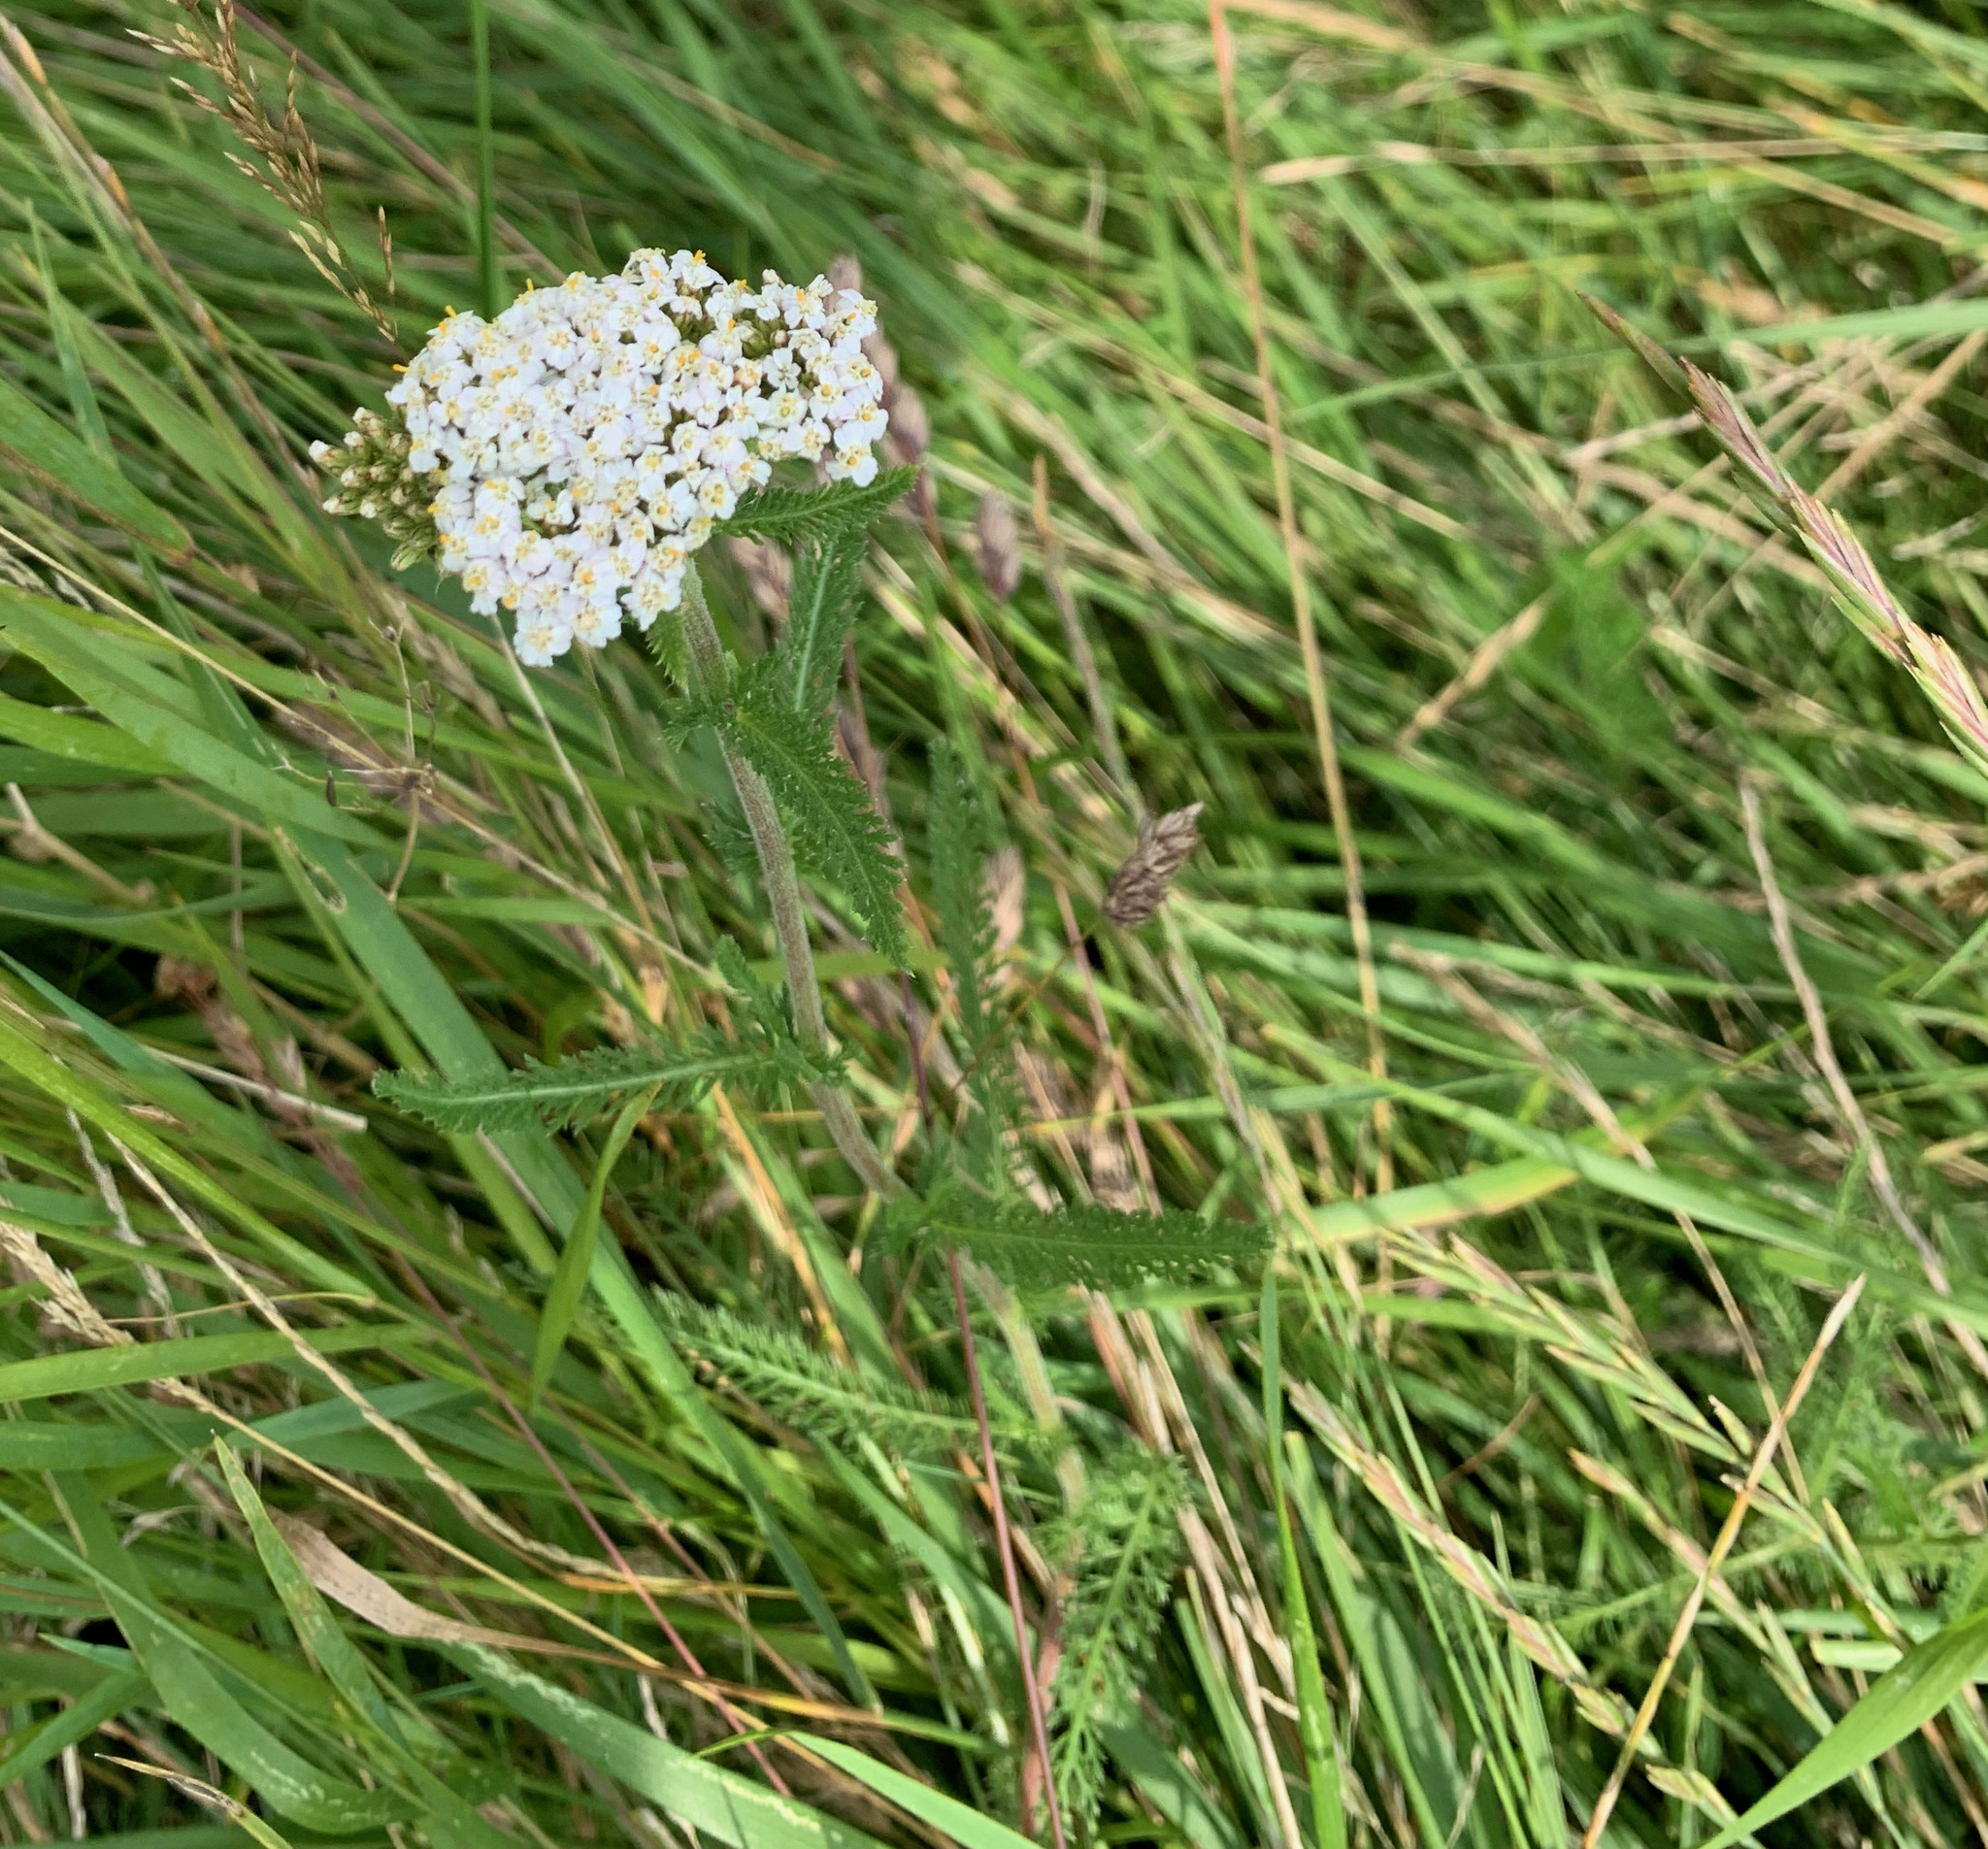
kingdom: Plantae
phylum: Tracheophyta
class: Magnoliopsida
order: Asterales
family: Asteraceae
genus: Achillea
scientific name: Achillea millefolium
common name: Yarrow
